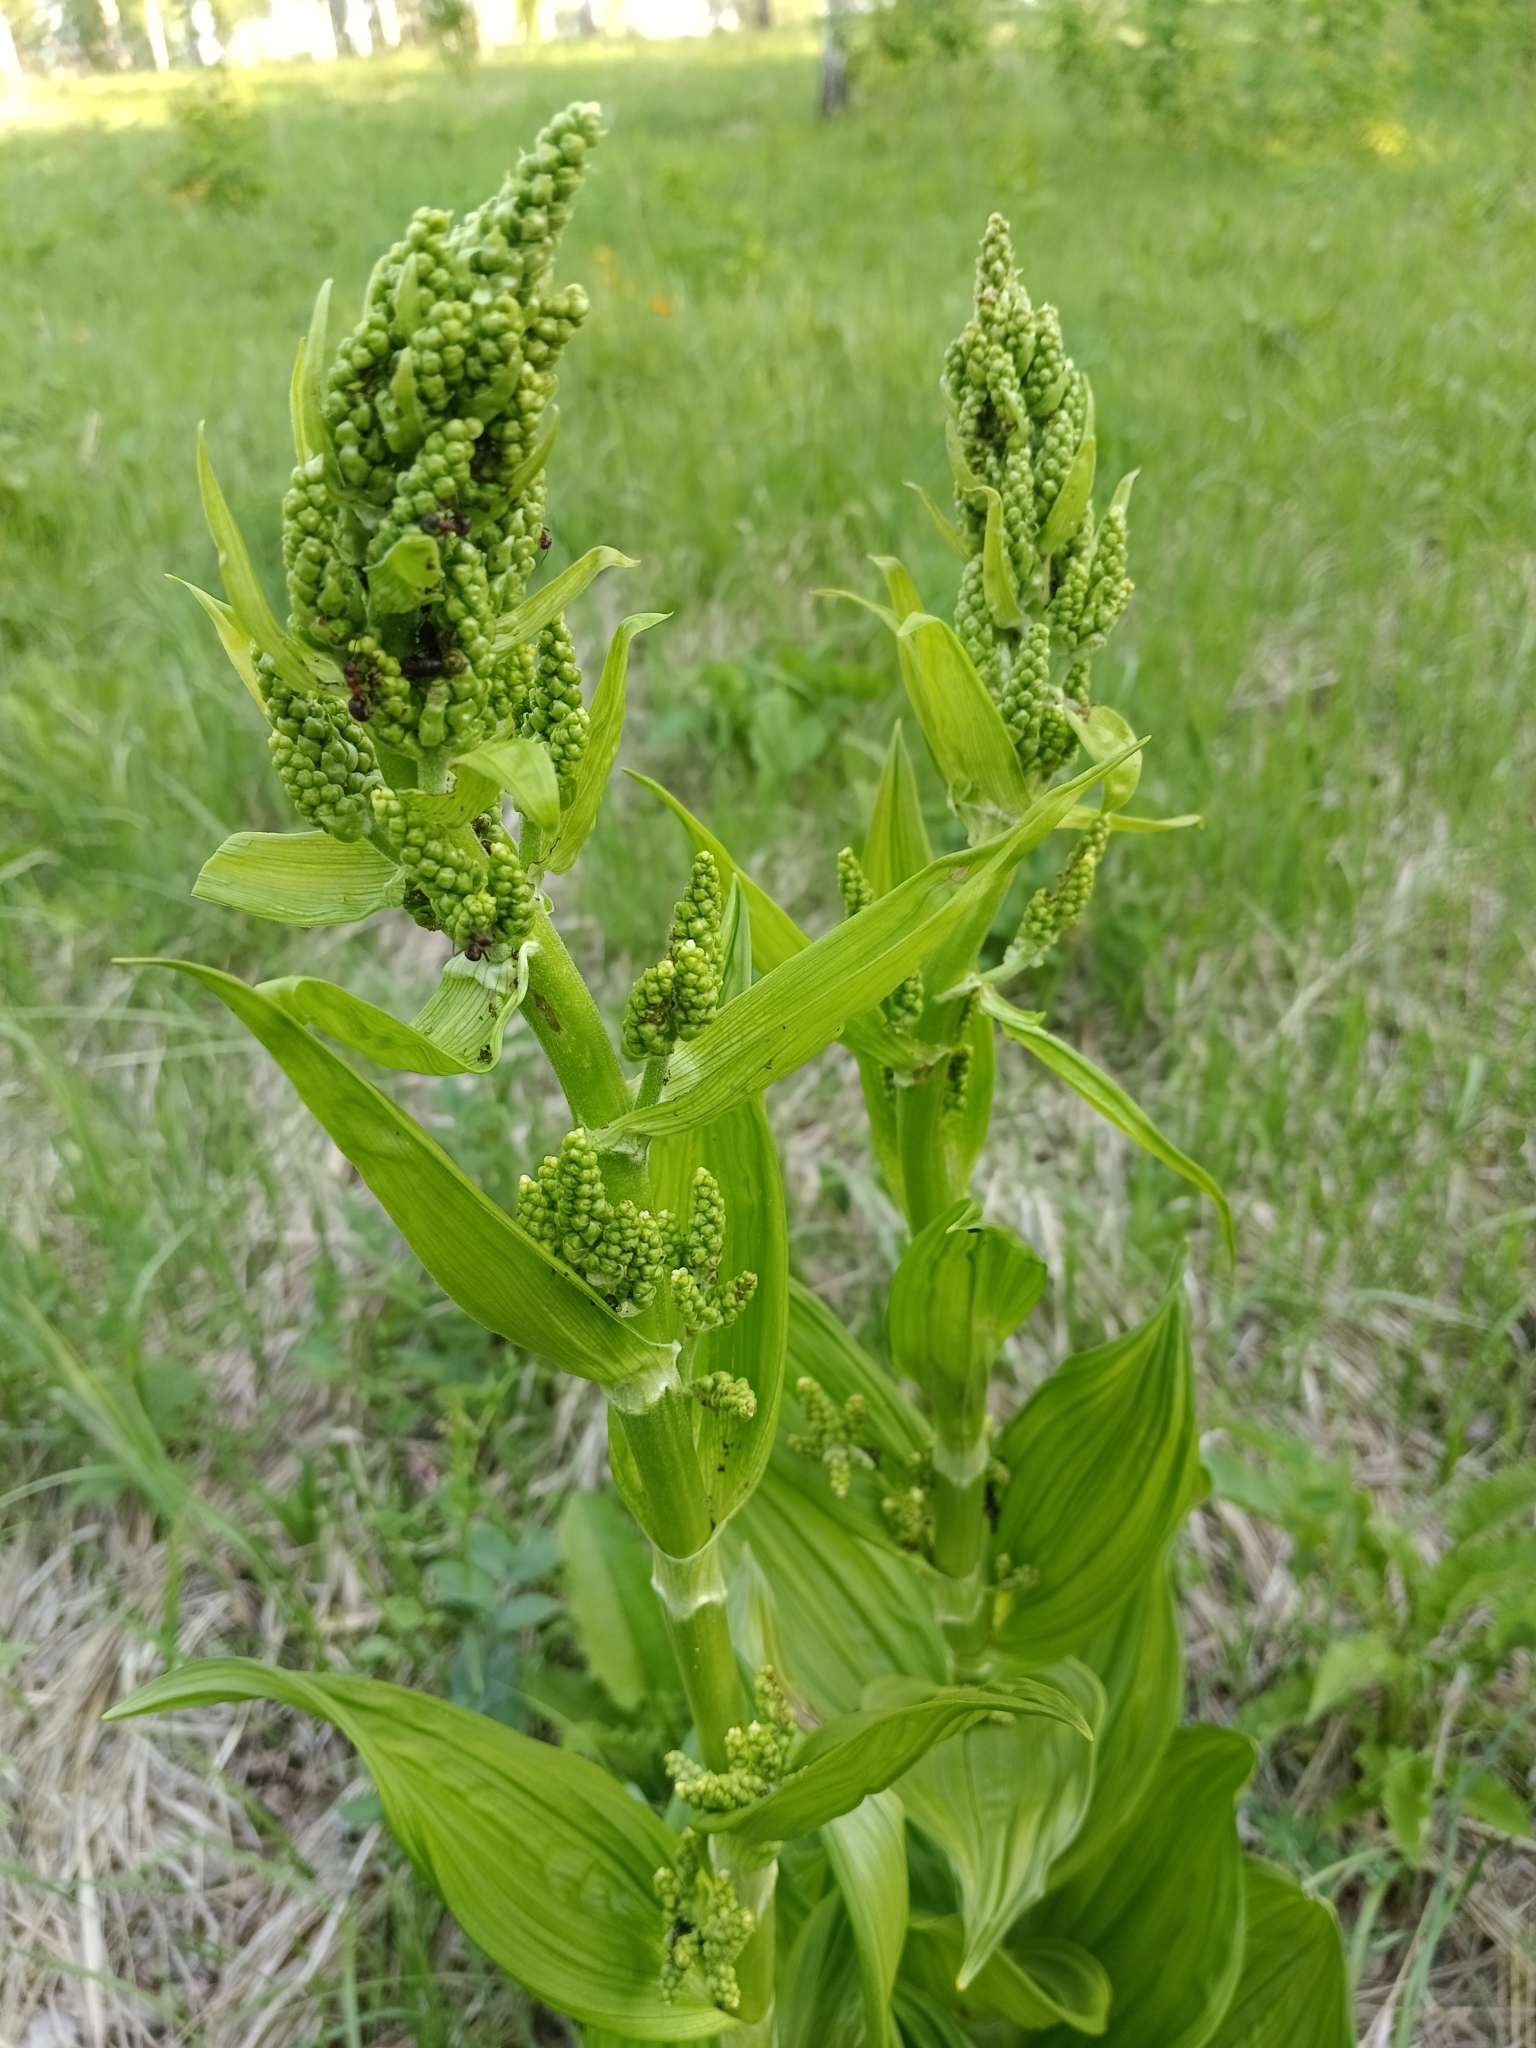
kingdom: Plantae
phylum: Tracheophyta
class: Liliopsida
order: Liliales
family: Melanthiaceae
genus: Veratrum
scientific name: Veratrum lobelianum
